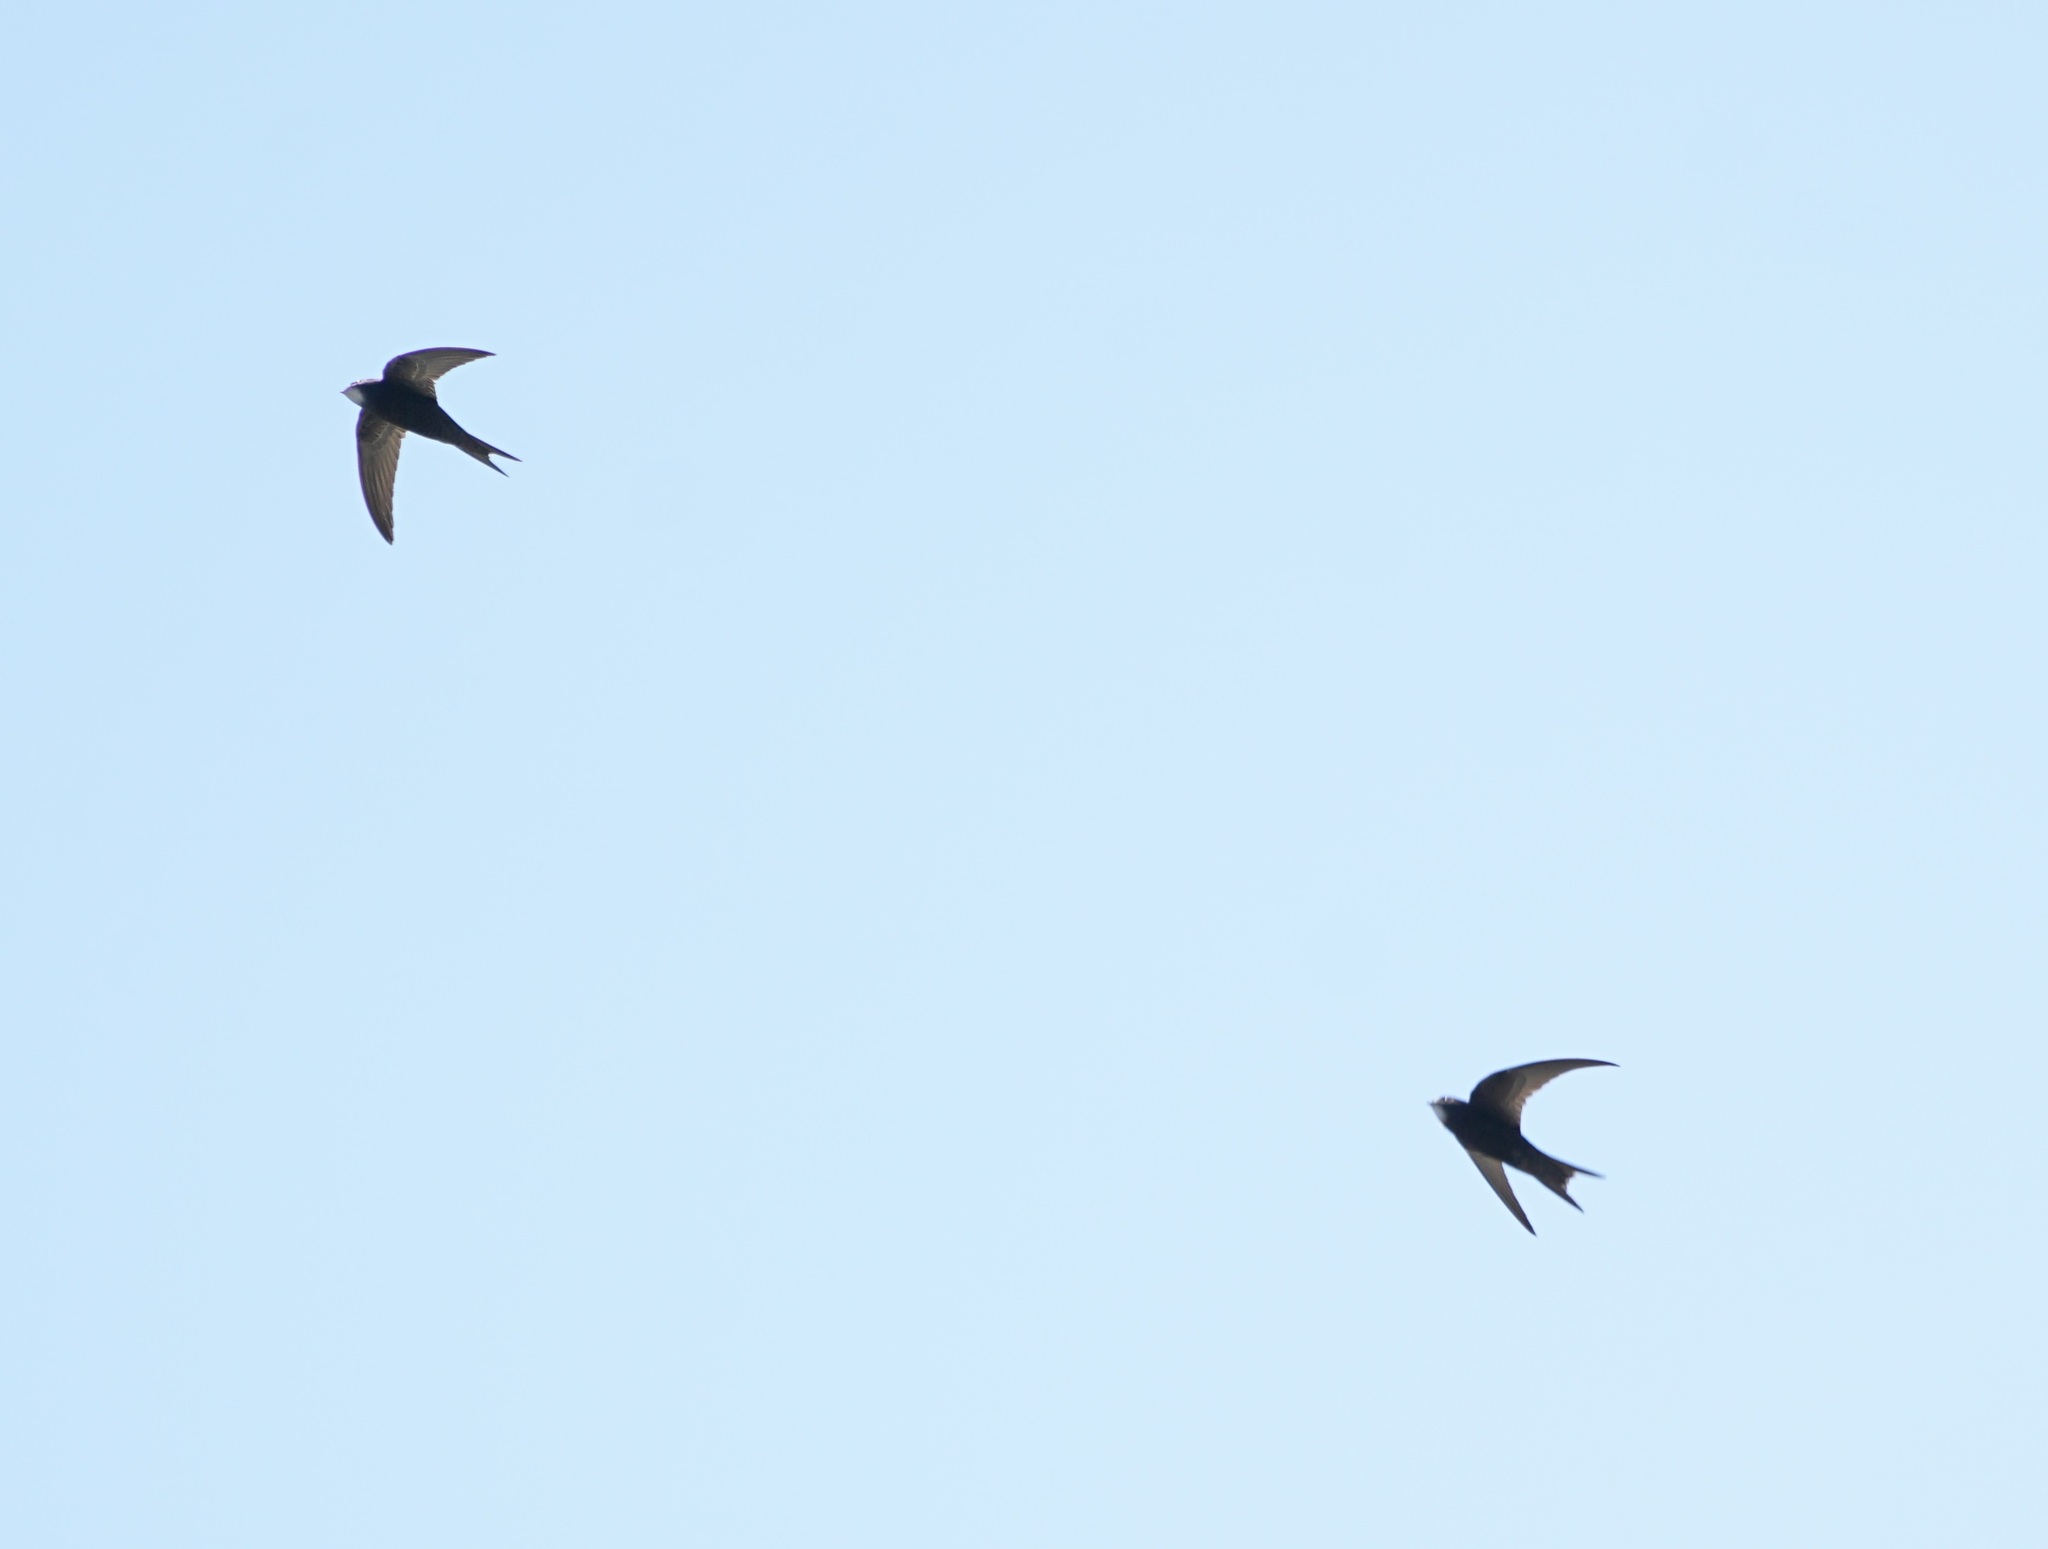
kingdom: Animalia
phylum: Chordata
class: Aves
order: Apodiformes
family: Apodidae
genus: Apus
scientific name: Apus apus
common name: Common swift
